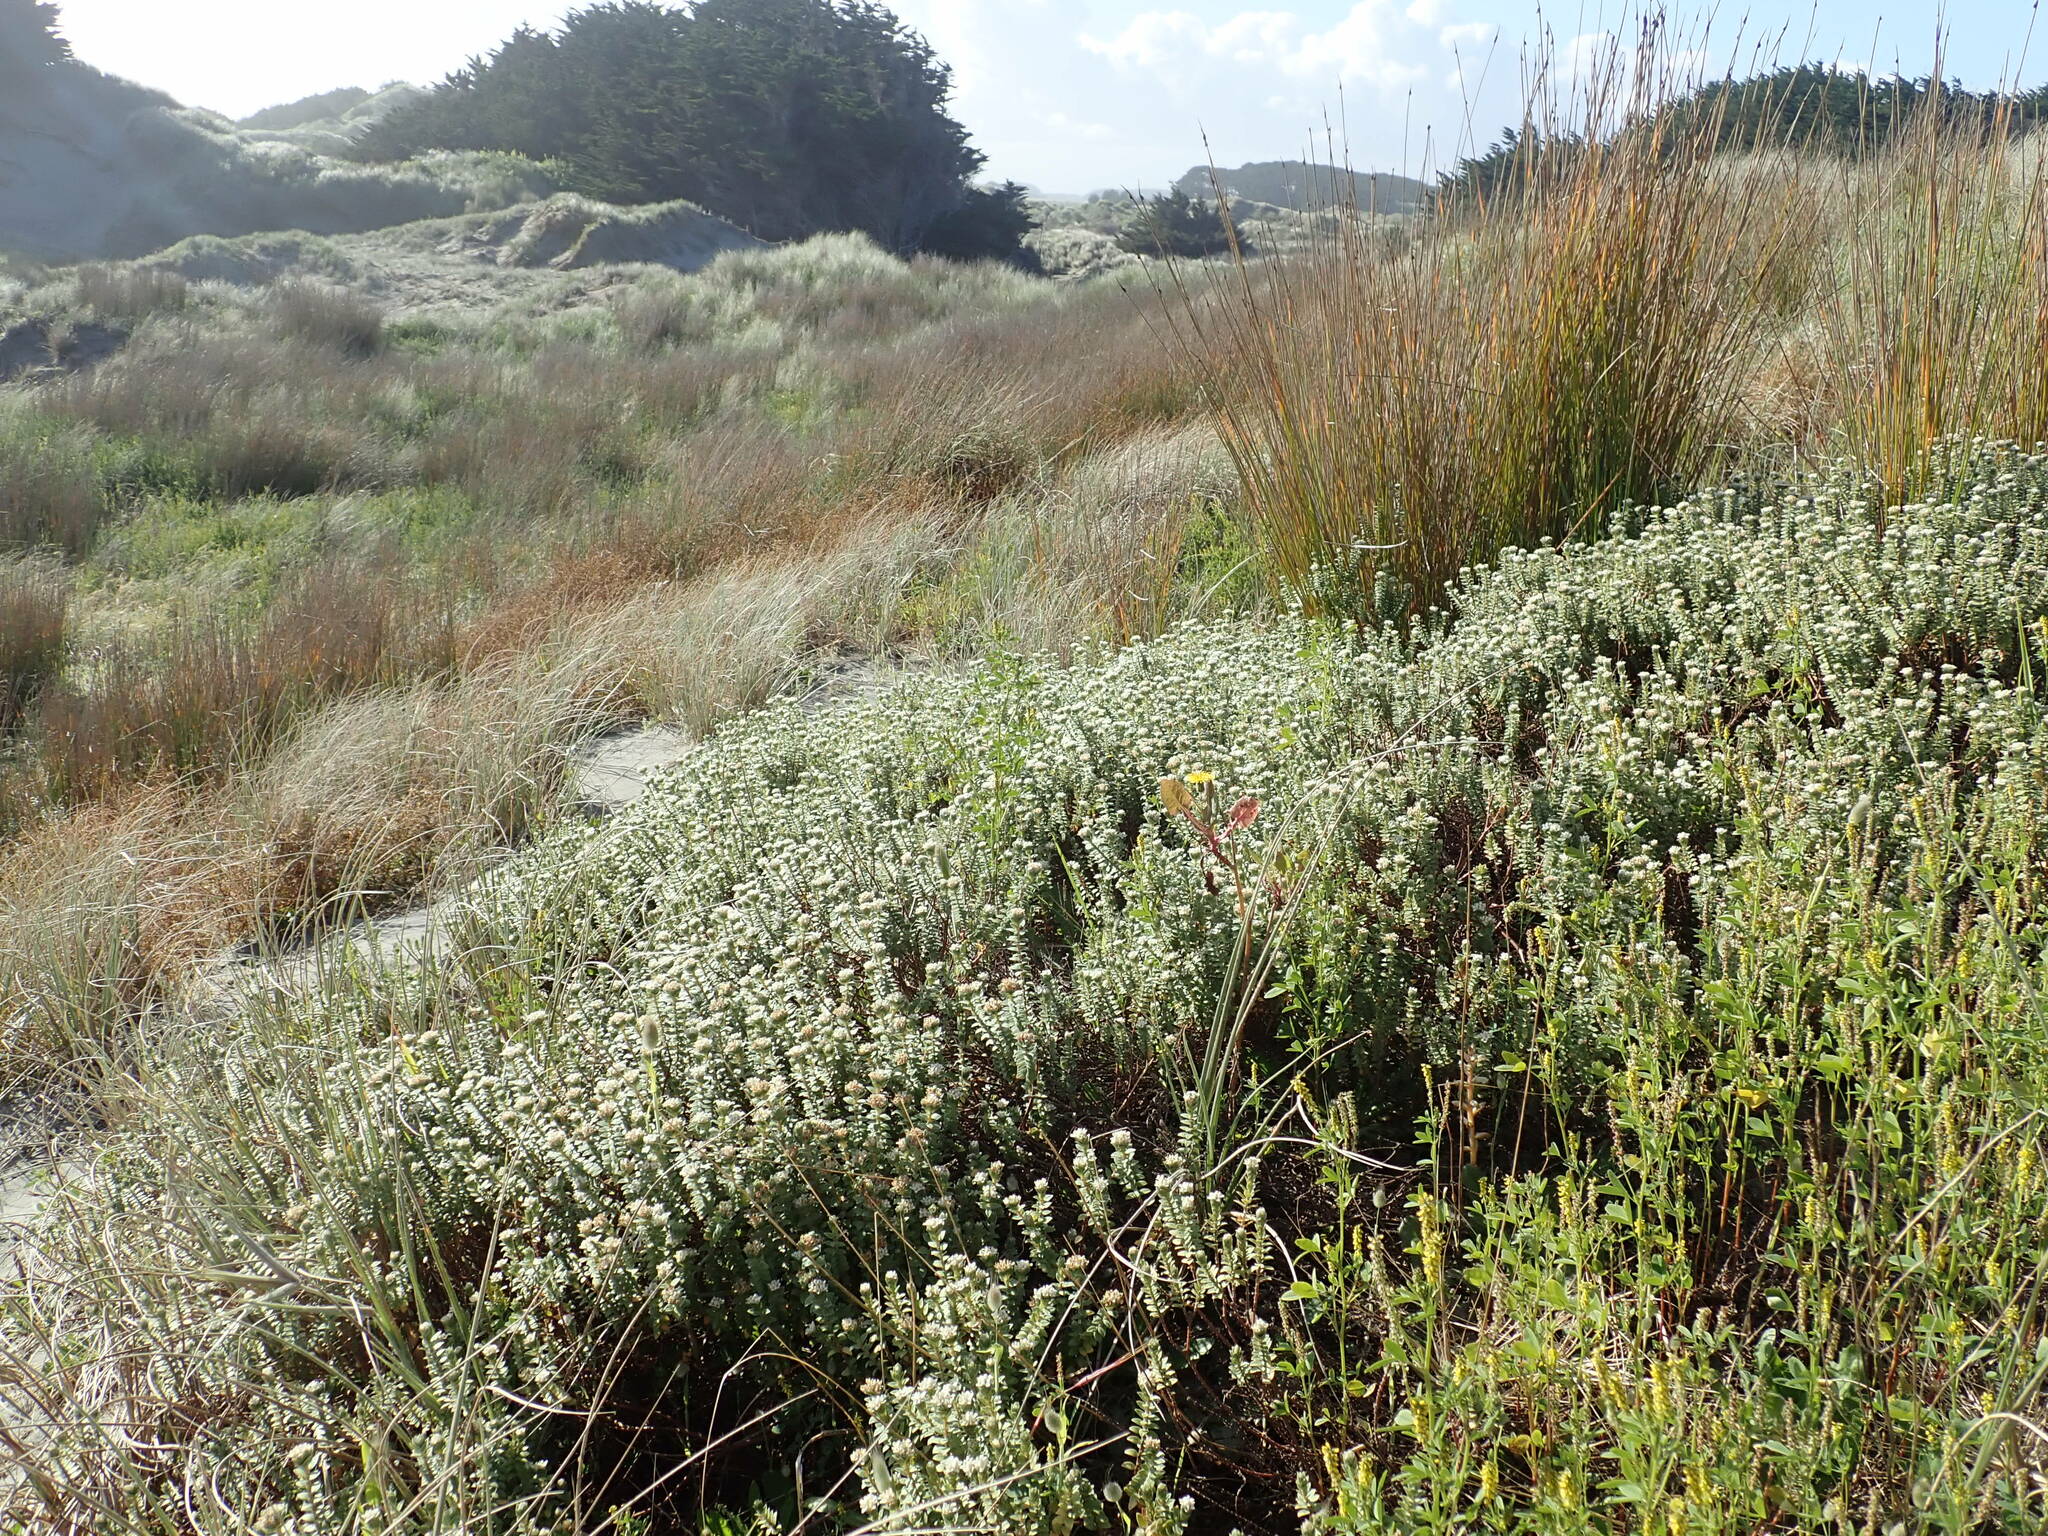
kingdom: Plantae
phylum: Tracheophyta
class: Magnoliopsida
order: Asterales
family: Asteraceae
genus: Sonchus
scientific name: Sonchus oleraceus
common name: Common sowthistle
